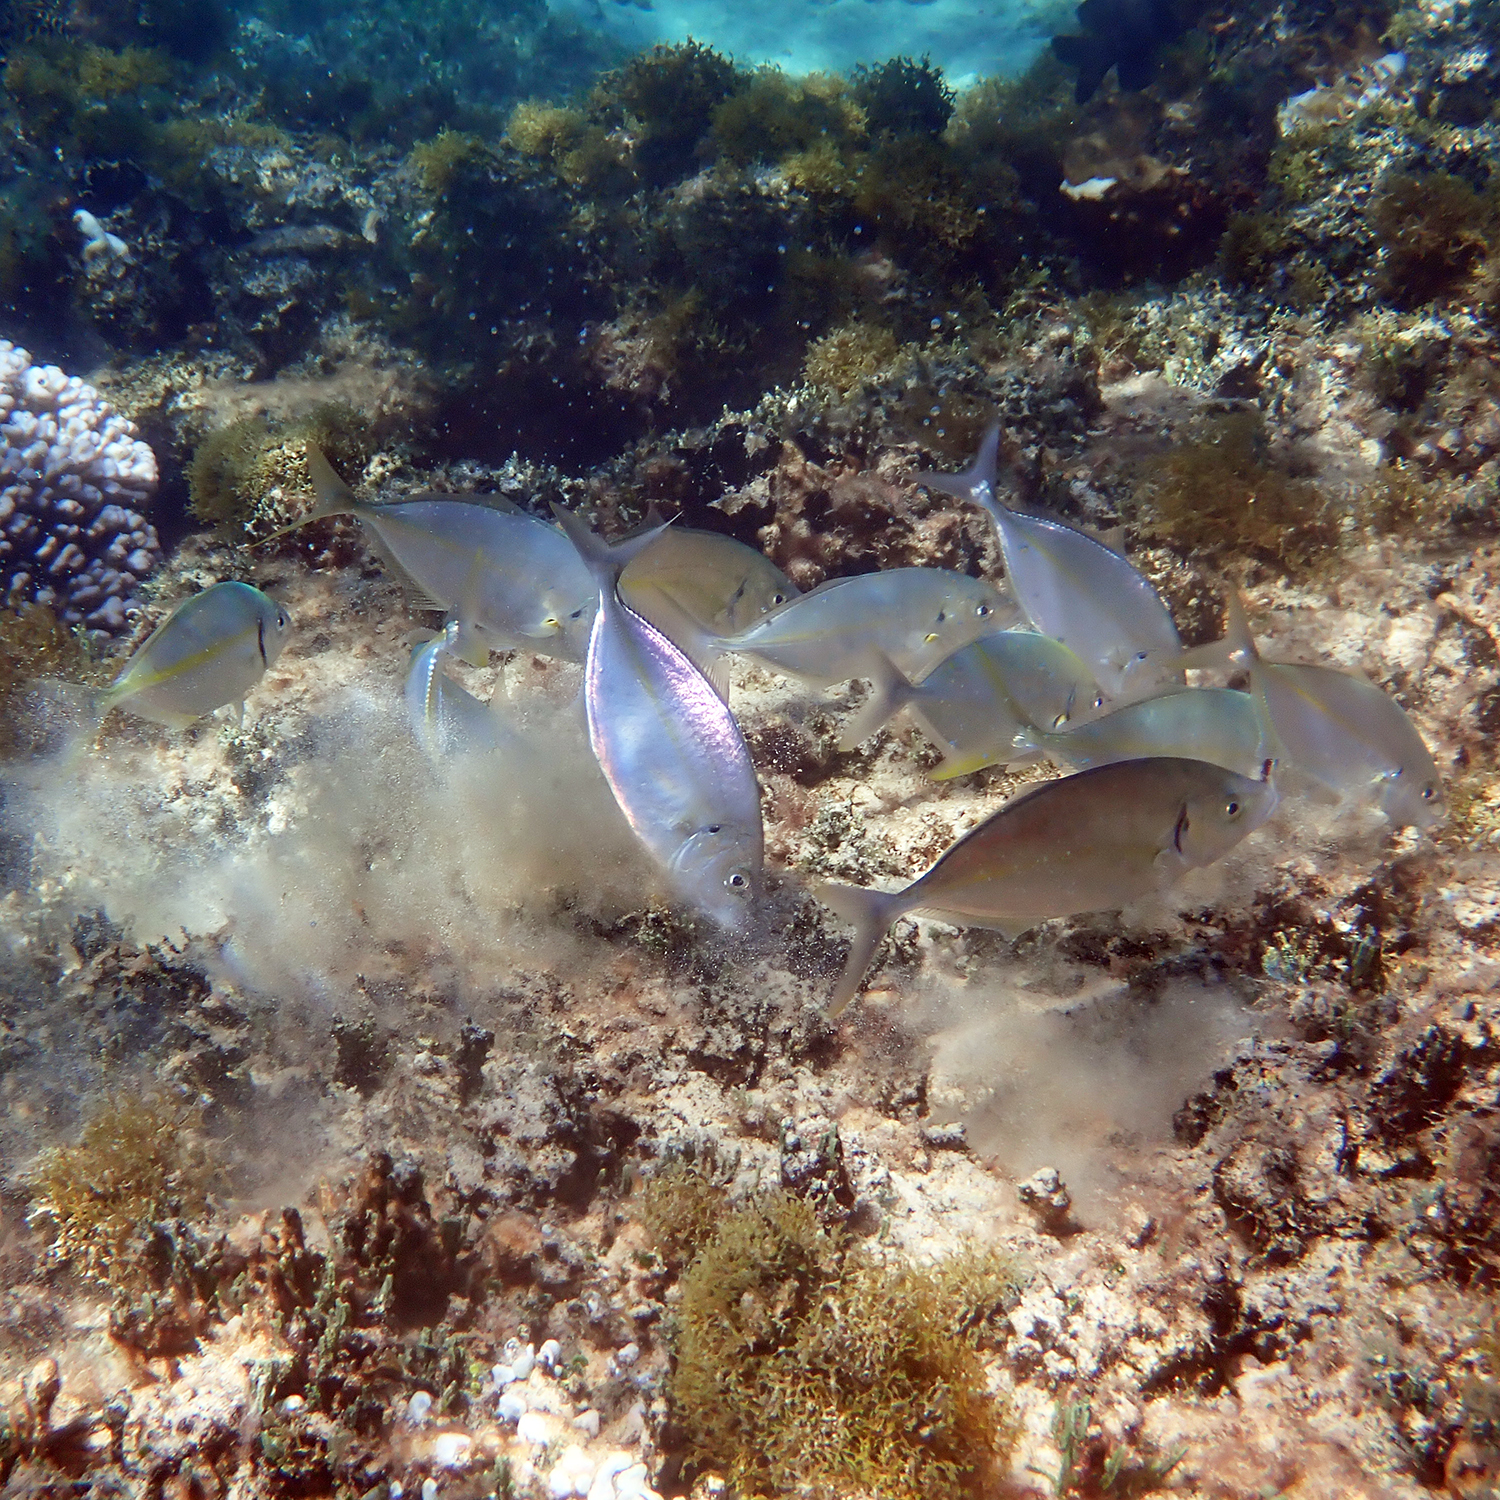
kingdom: Animalia
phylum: Chordata
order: Perciformes
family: Carangidae
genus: Pseudocaranx
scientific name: Pseudocaranx dentex
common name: White trevally
